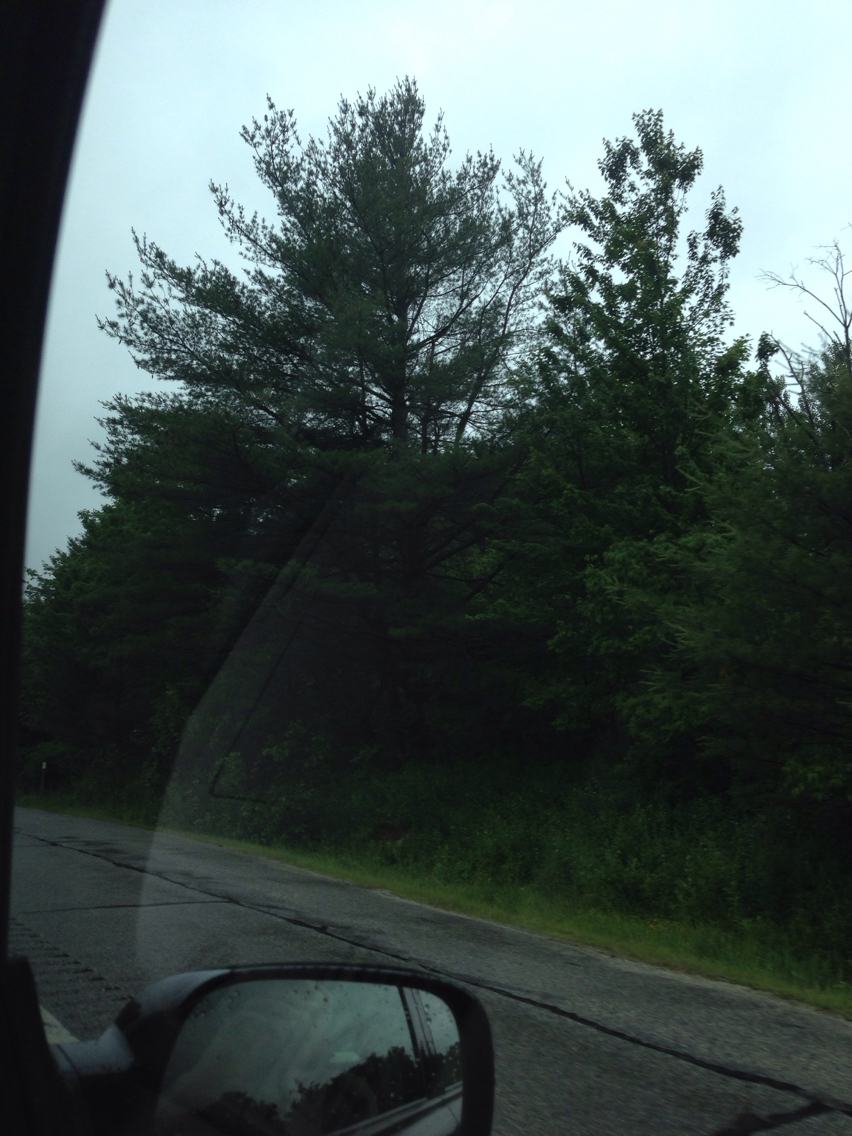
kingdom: Plantae
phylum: Tracheophyta
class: Pinopsida
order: Pinales
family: Pinaceae
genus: Pinus
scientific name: Pinus strobus
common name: Weymouth pine
